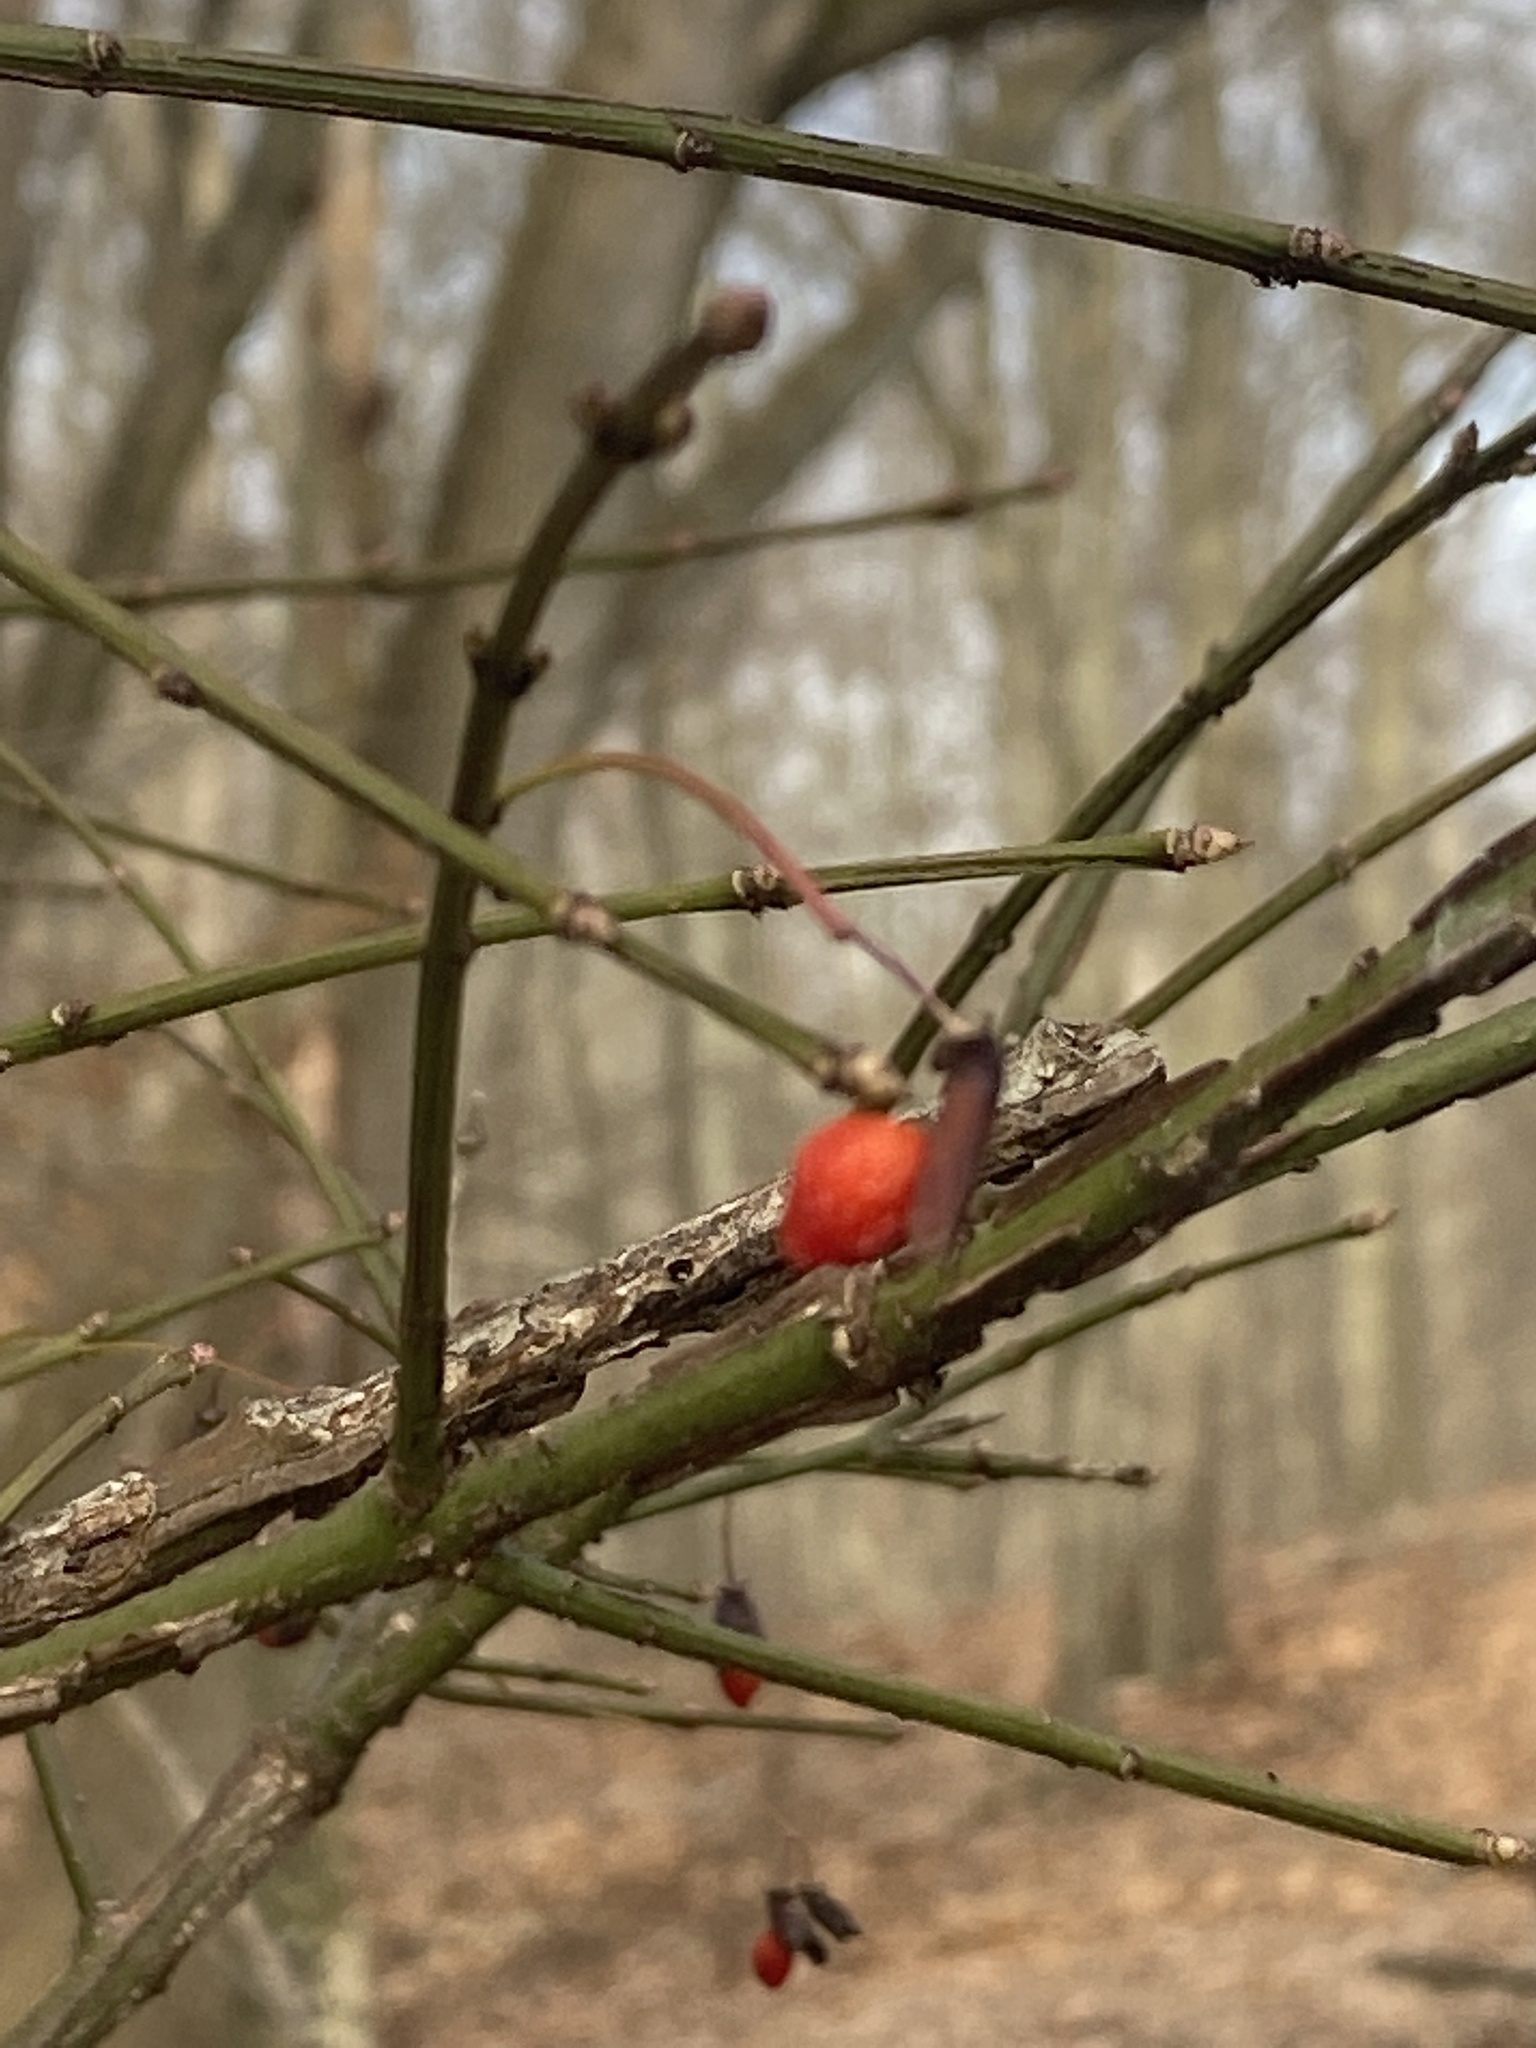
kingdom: Plantae
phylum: Tracheophyta
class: Magnoliopsida
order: Celastrales
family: Celastraceae
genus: Euonymus
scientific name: Euonymus alatus
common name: Winged euonymus
